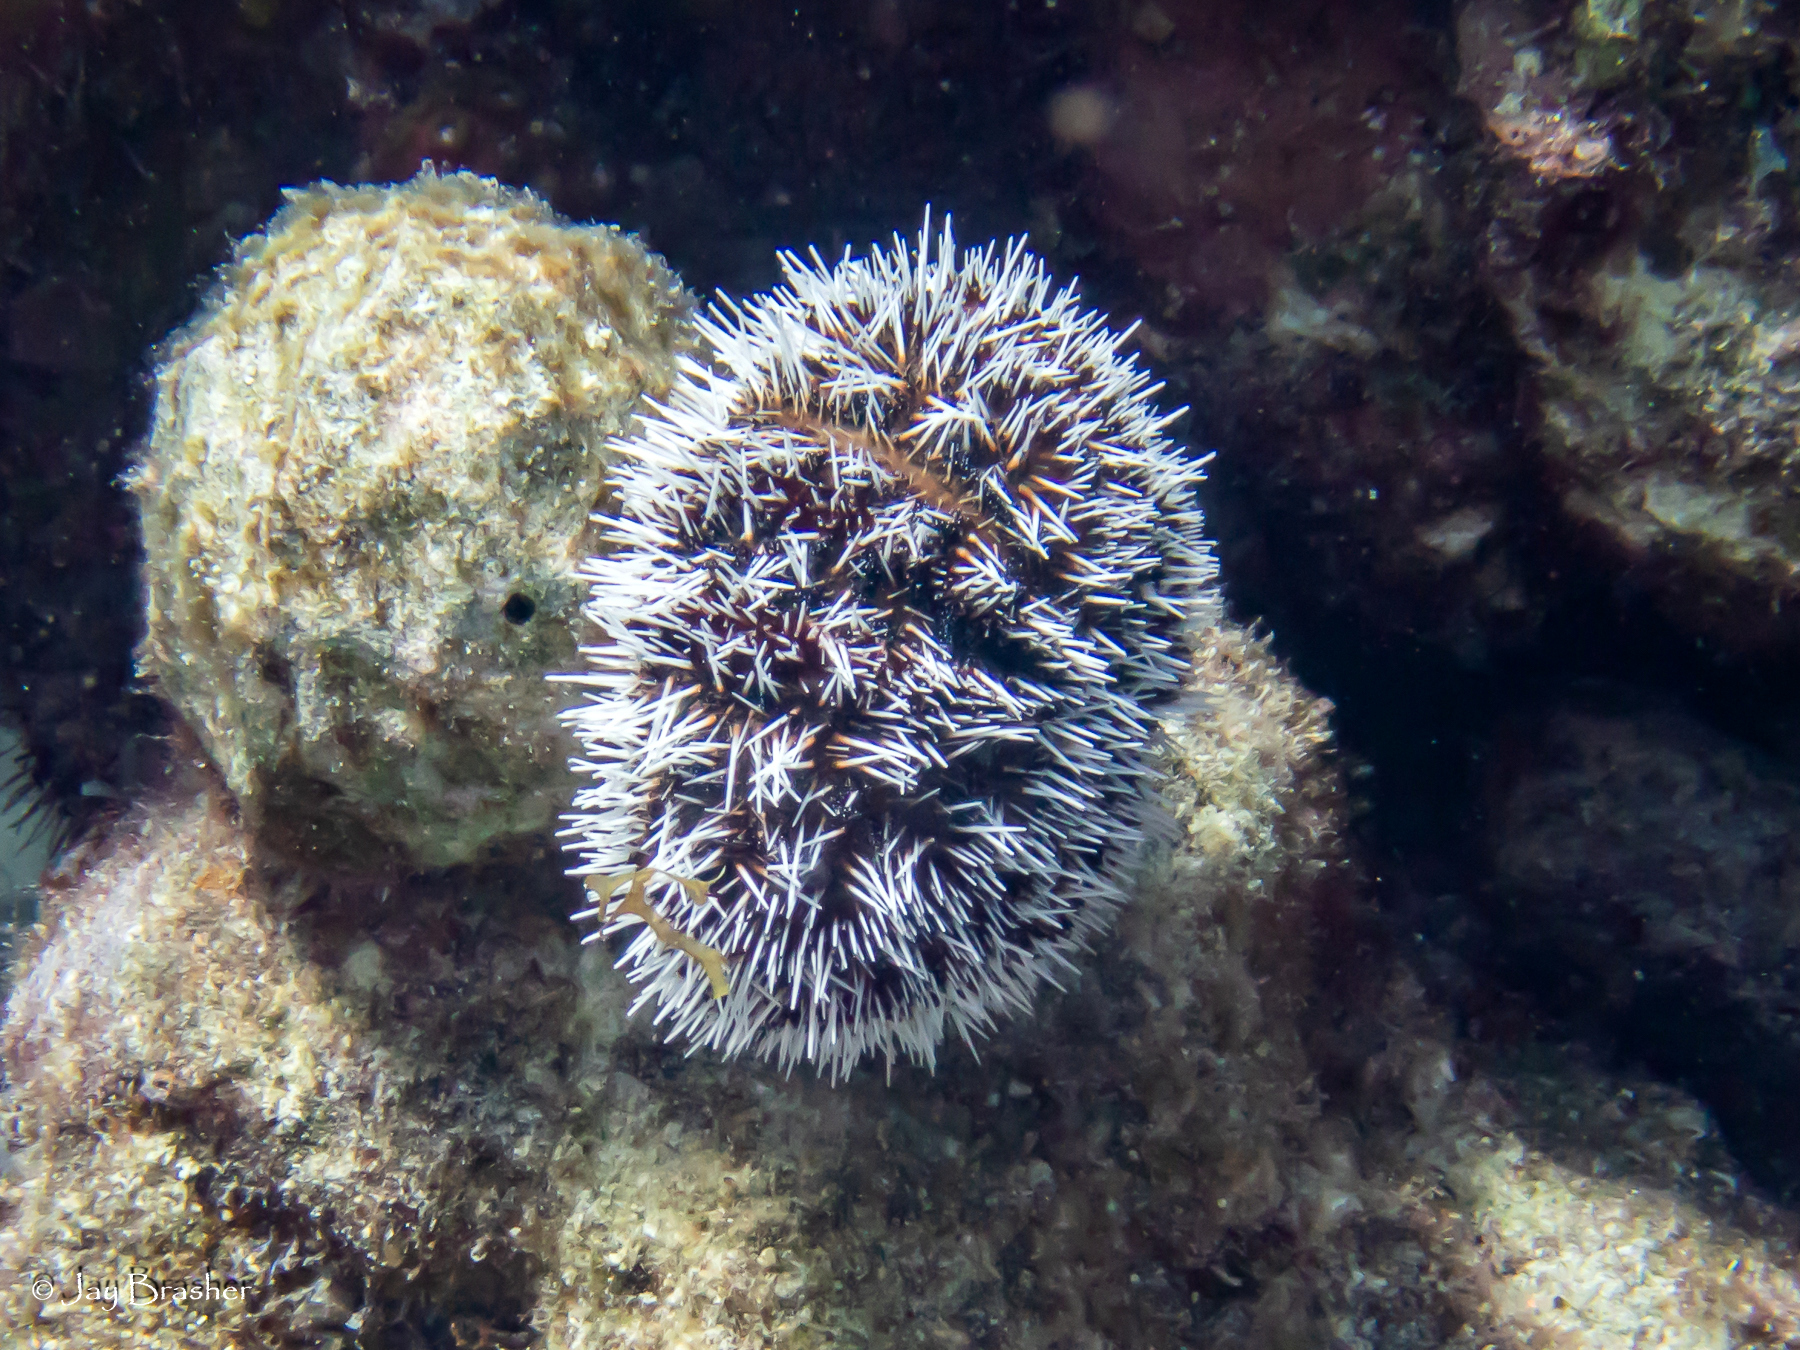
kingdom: Animalia
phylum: Echinodermata
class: Echinoidea
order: Camarodonta
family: Toxopneustidae
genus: Tripneustes
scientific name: Tripneustes ventricosus
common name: West indian sea egg
